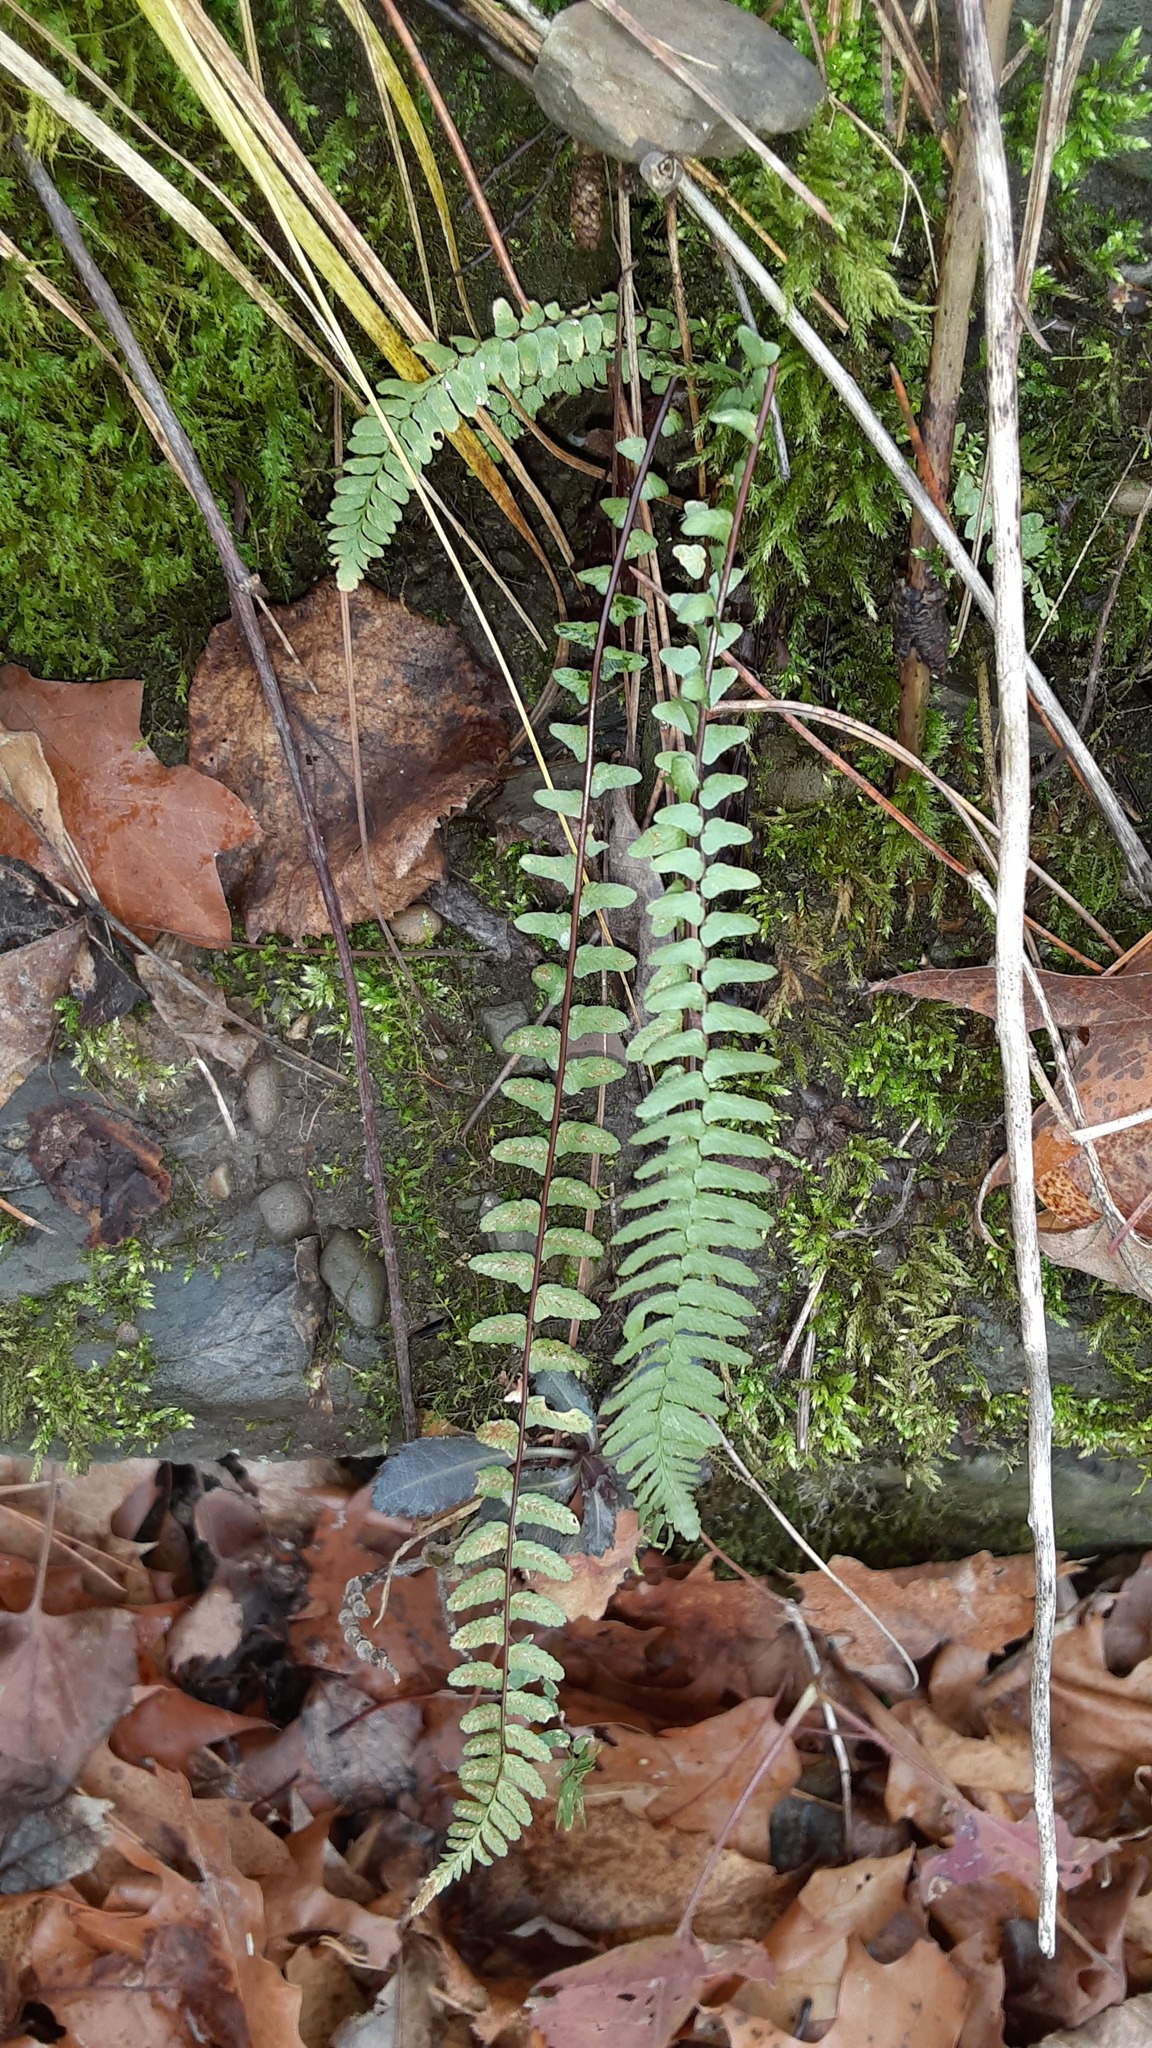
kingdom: Plantae
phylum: Tracheophyta
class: Polypodiopsida
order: Polypodiales
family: Aspleniaceae
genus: Asplenium
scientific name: Asplenium platyneuron
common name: Ebony spleenwort
